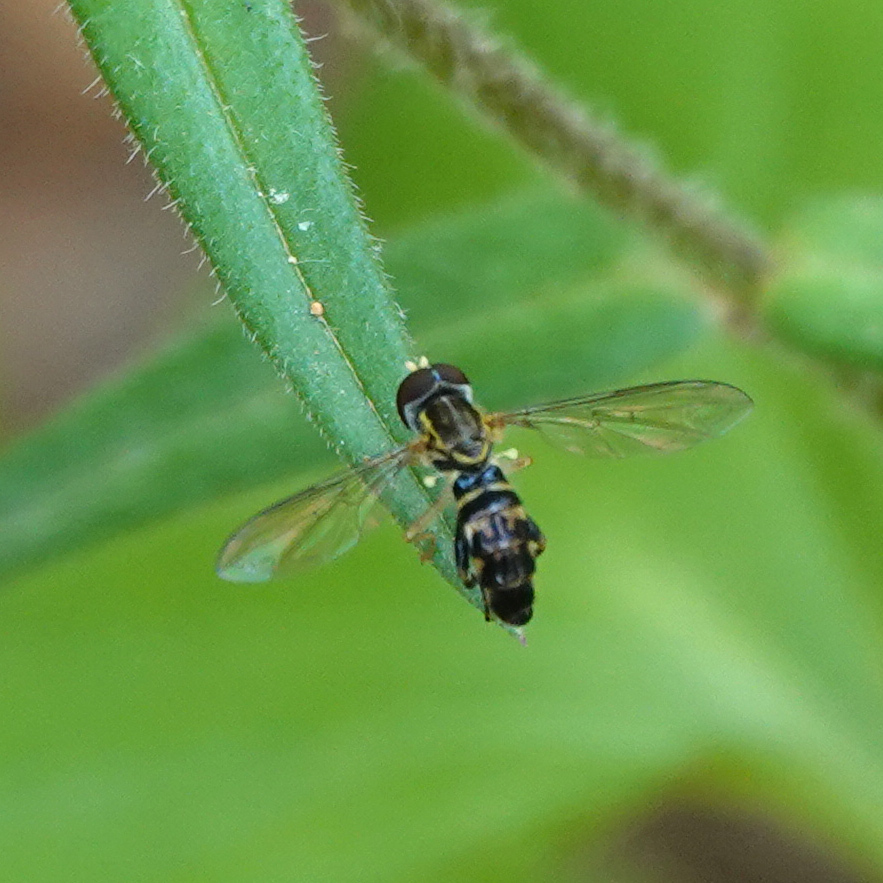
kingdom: Animalia
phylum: Arthropoda
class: Insecta
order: Diptera
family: Syrphidae
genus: Toxomerus
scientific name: Toxomerus geminatus
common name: Eastern calligrapher
